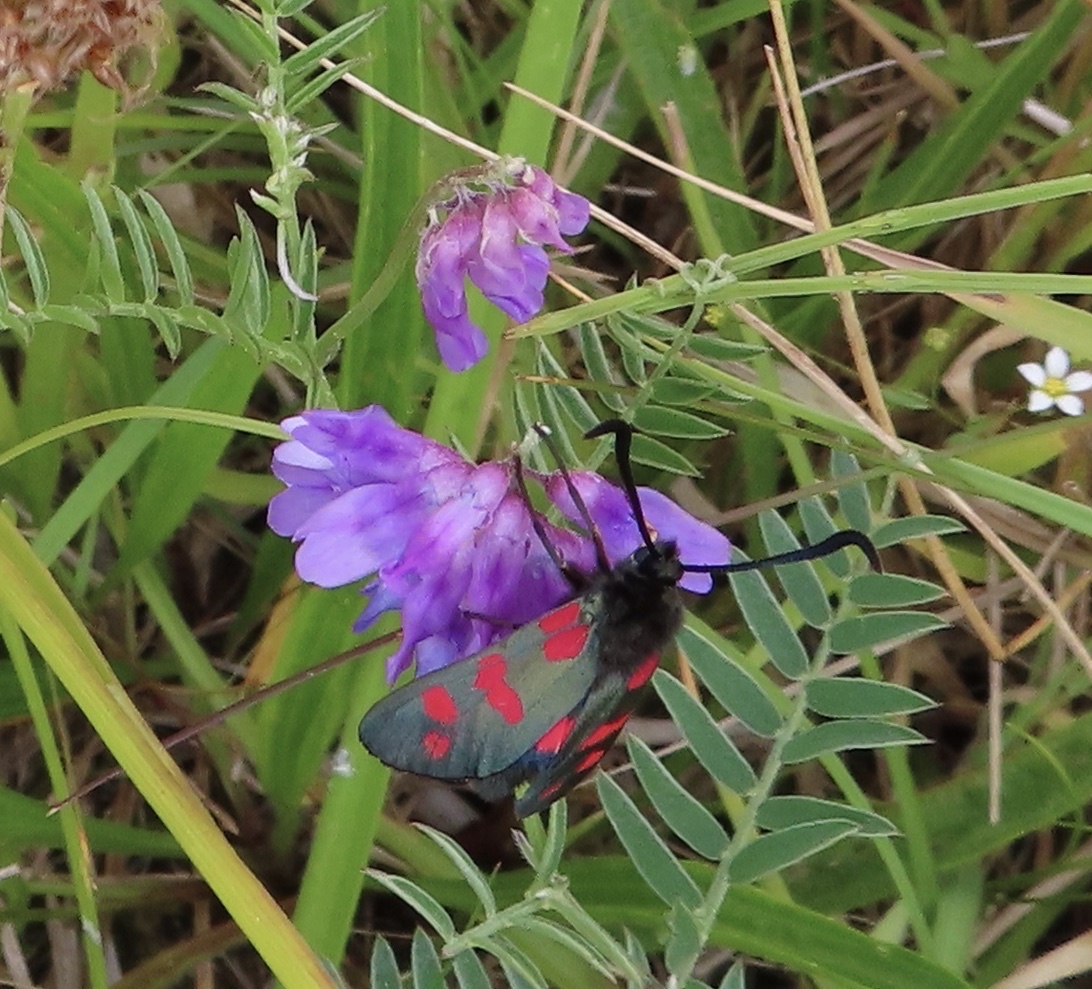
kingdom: Animalia
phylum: Arthropoda
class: Insecta
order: Lepidoptera
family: Zygaenidae
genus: Zygaena
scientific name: Zygaena filipendulae
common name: Six-spot burnet
